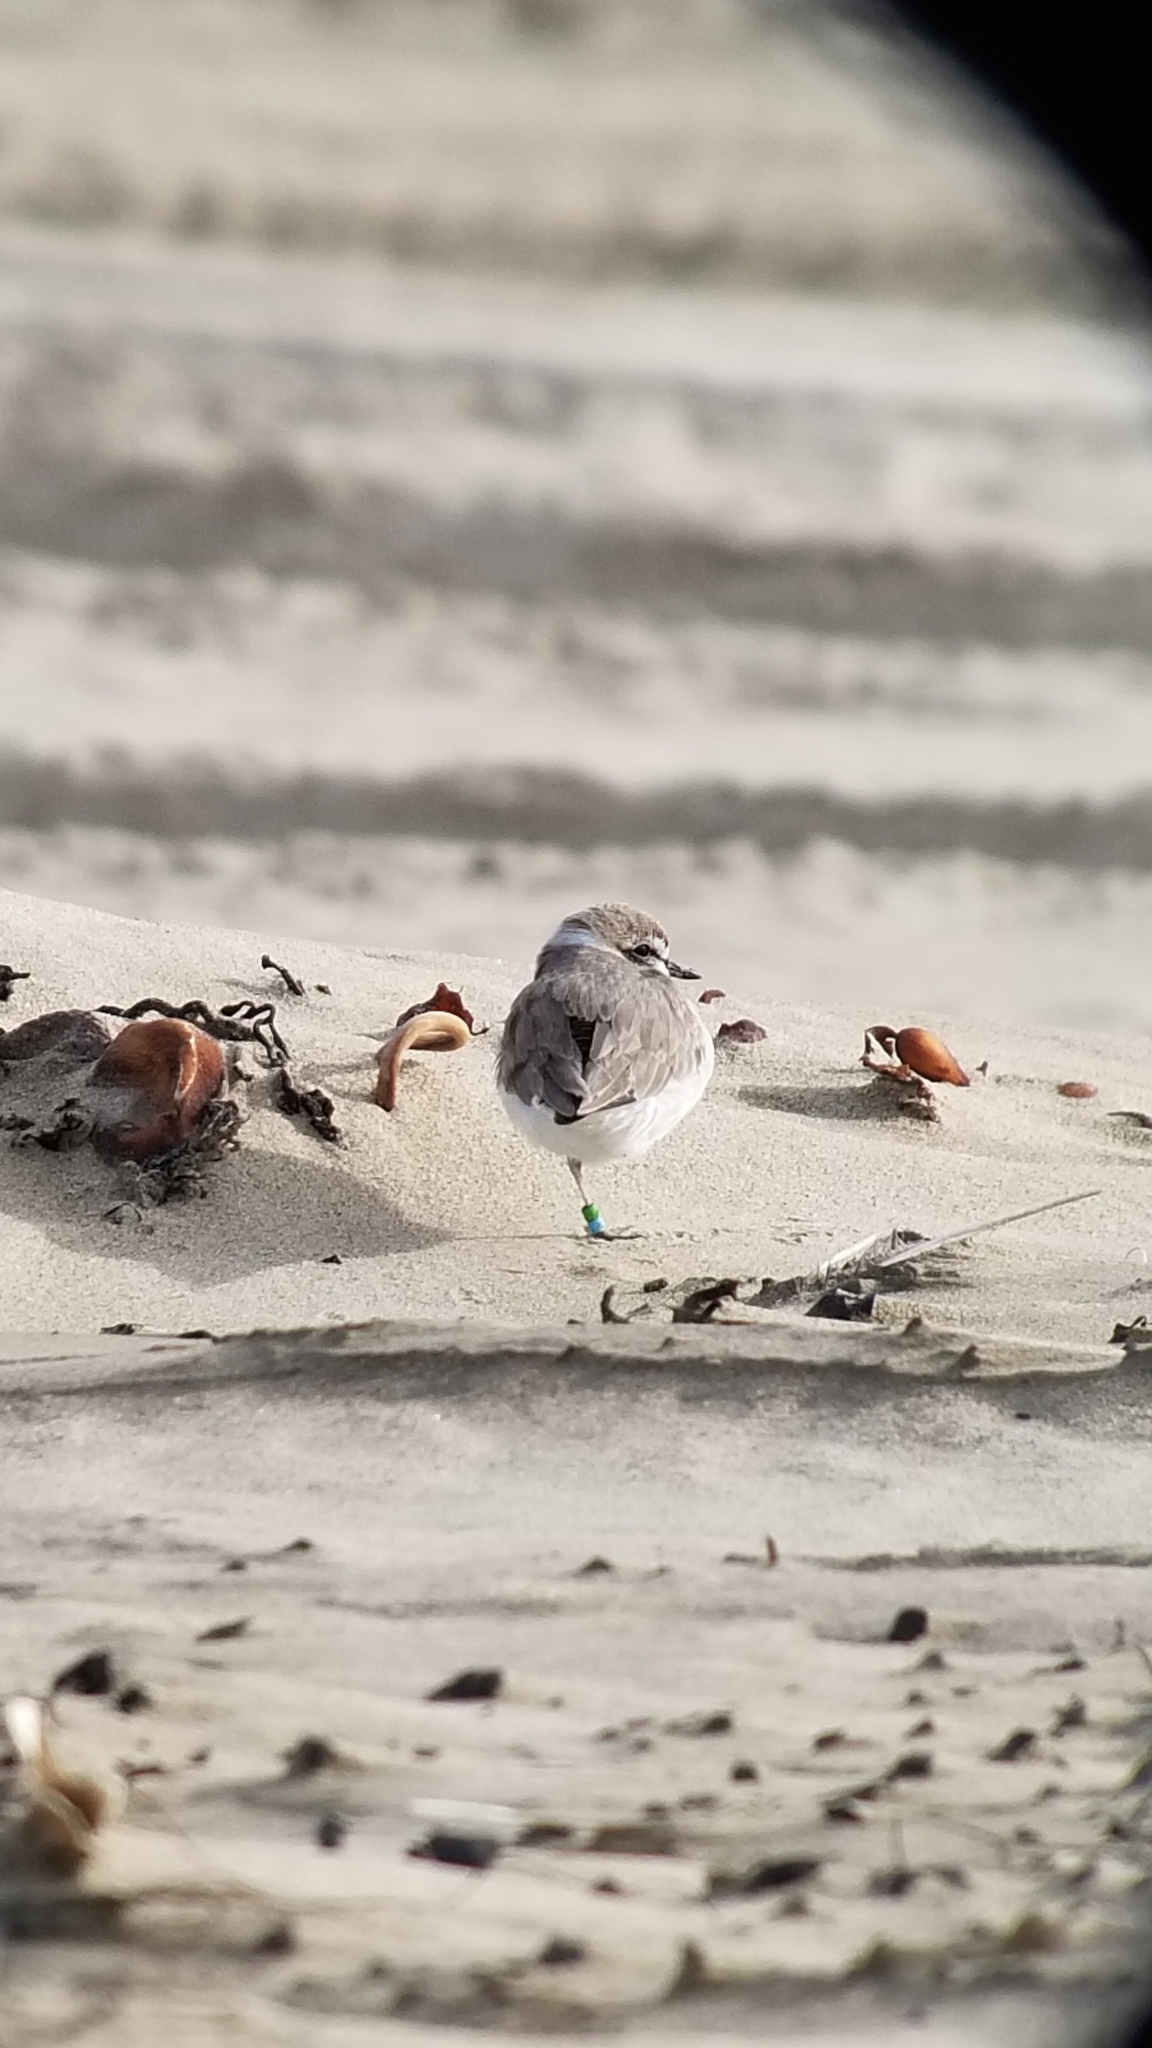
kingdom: Animalia
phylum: Chordata
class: Aves
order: Charadriiformes
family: Charadriidae
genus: Anarhynchus
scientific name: Anarhynchus
